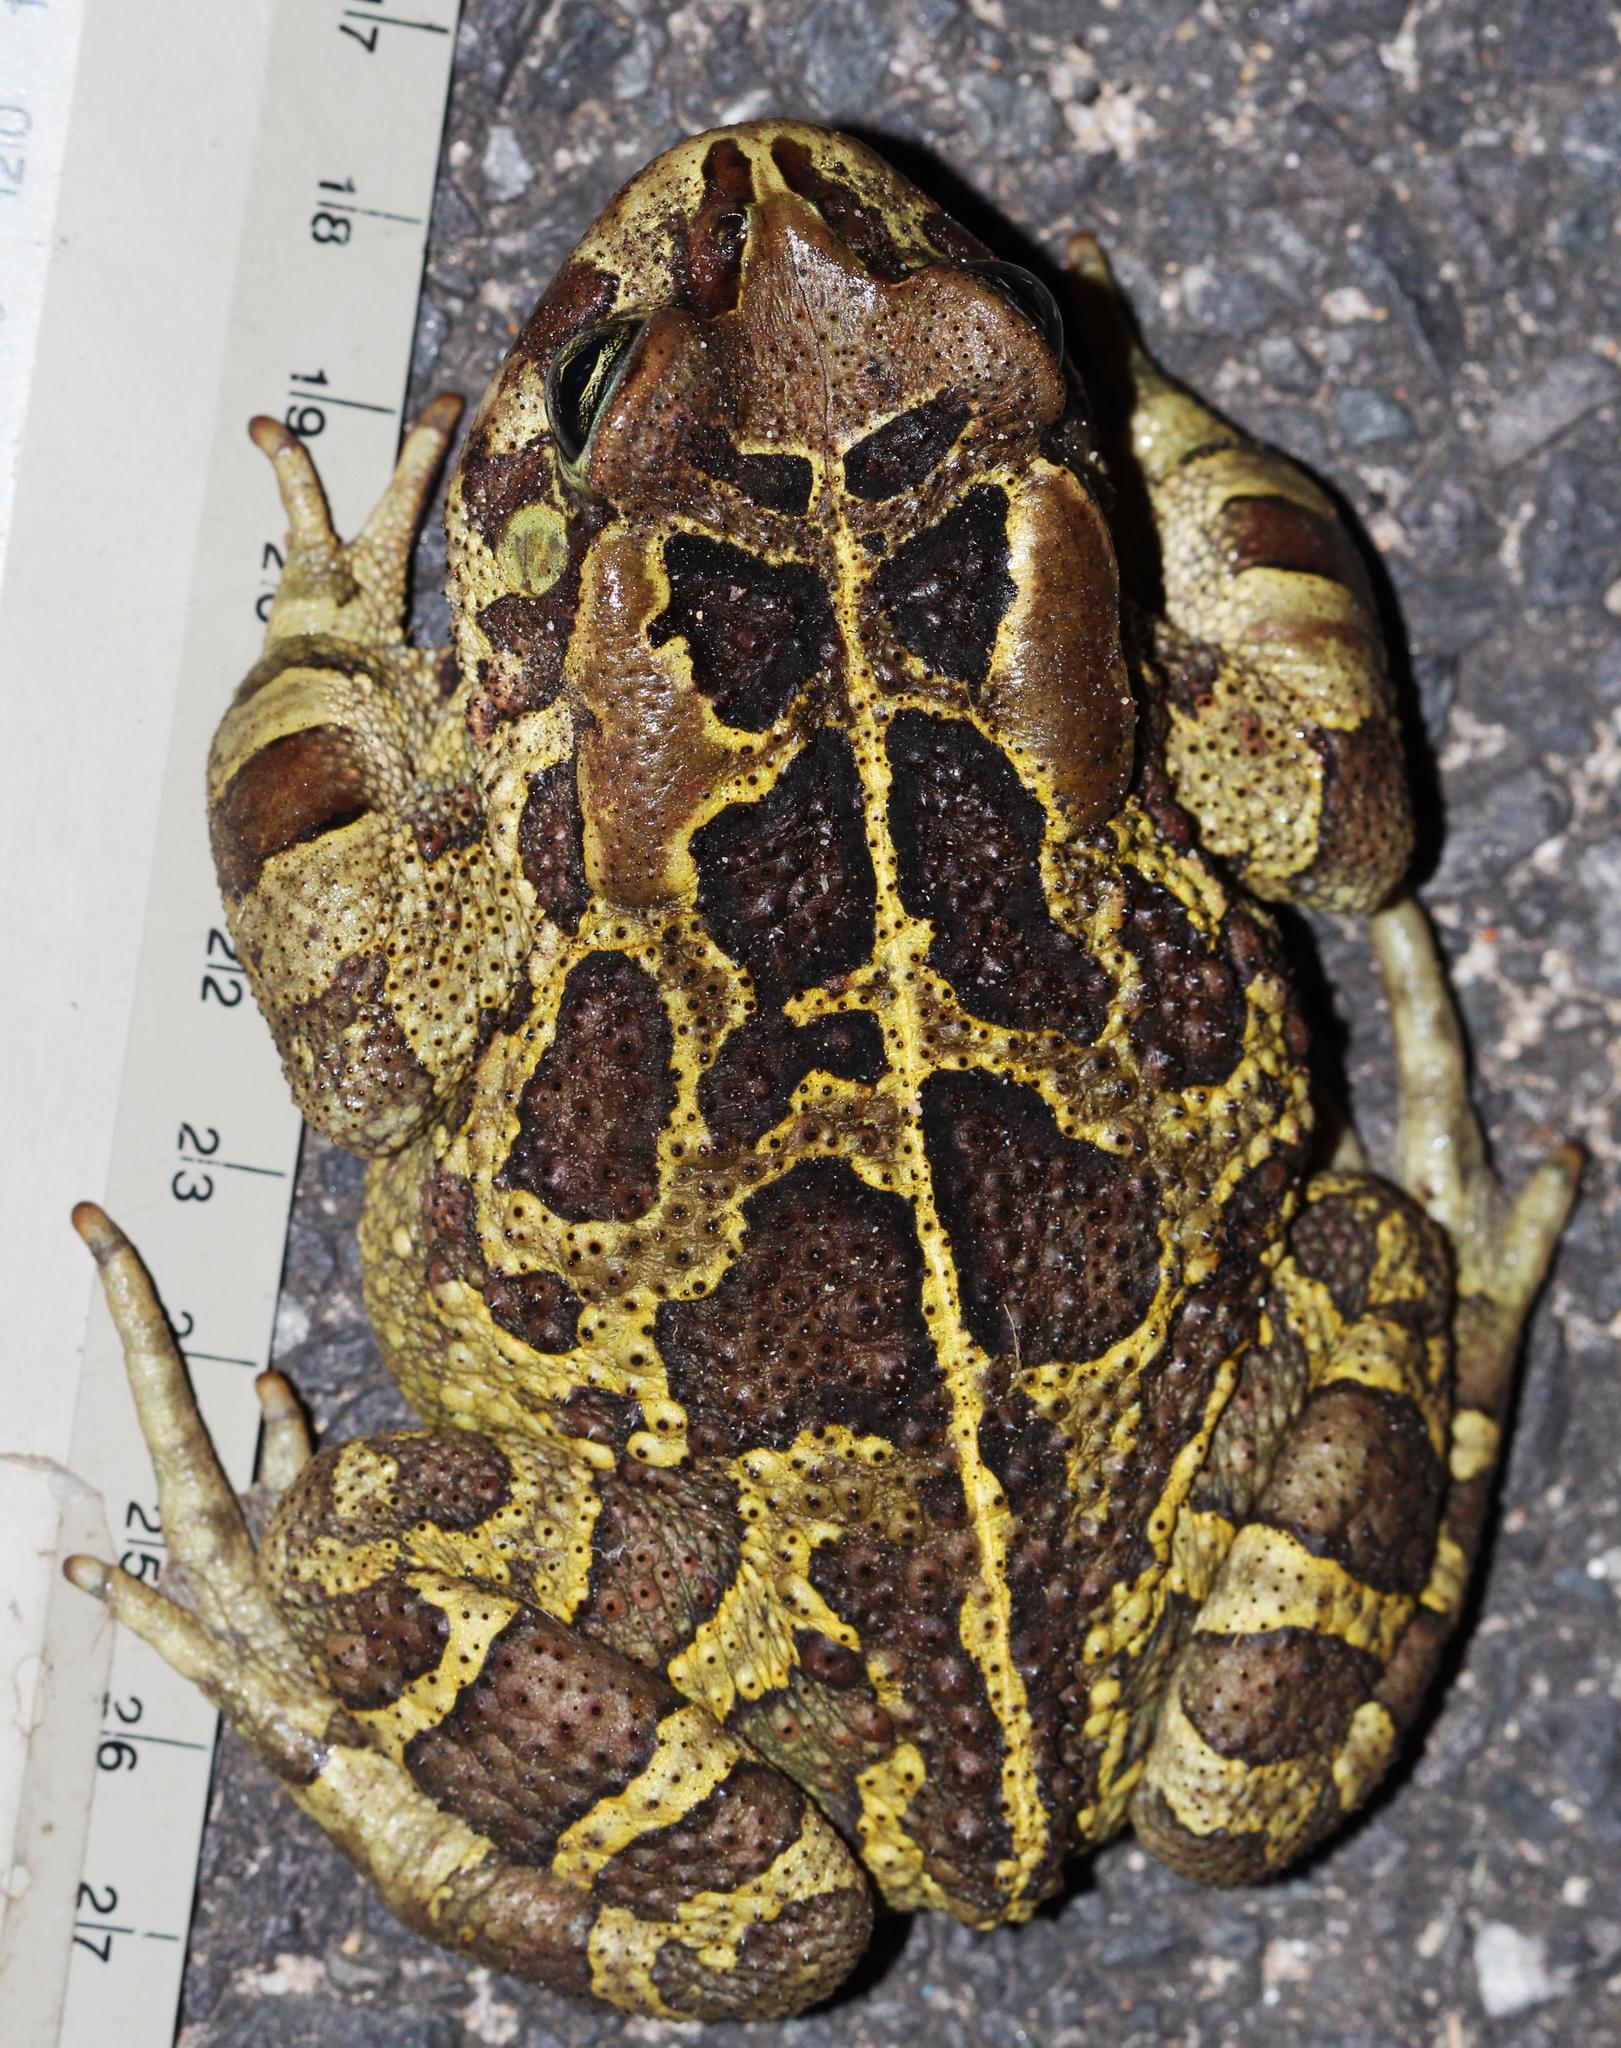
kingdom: Animalia
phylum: Chordata
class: Amphibia
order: Anura
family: Bufonidae
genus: Sclerophrys
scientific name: Sclerophrys pantherina
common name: Panther toad
